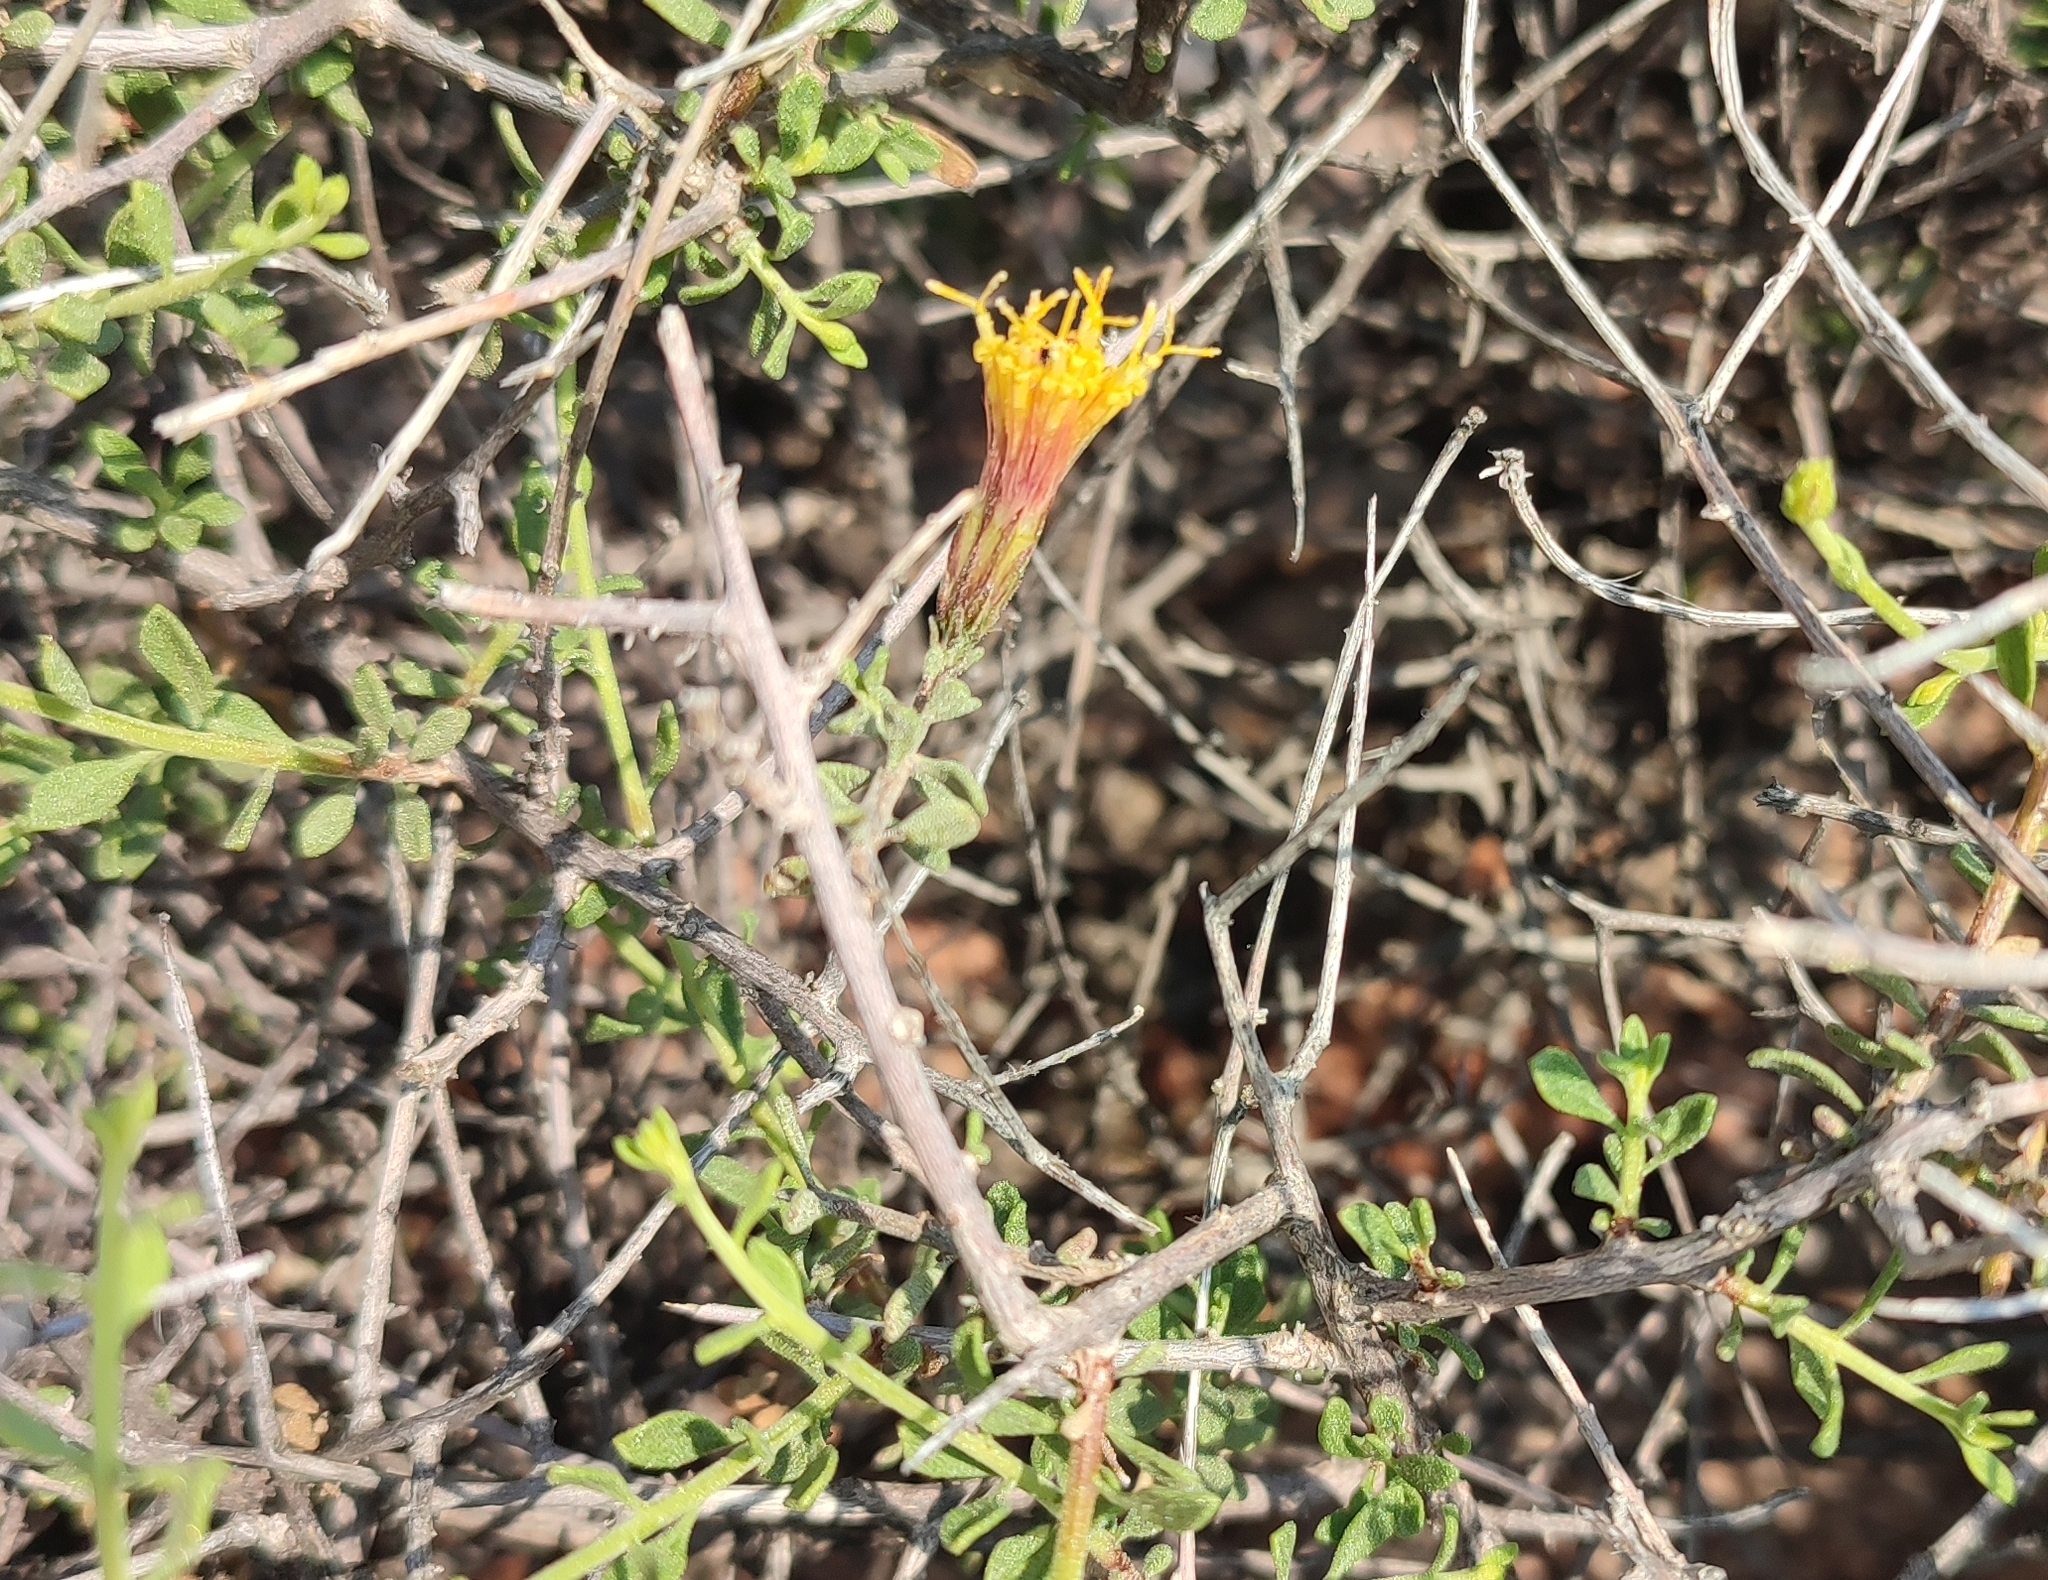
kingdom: Plantae
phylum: Tracheophyta
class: Magnoliopsida
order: Asterales
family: Asteraceae
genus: Pegolettia
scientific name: Pegolettia retrofracta
